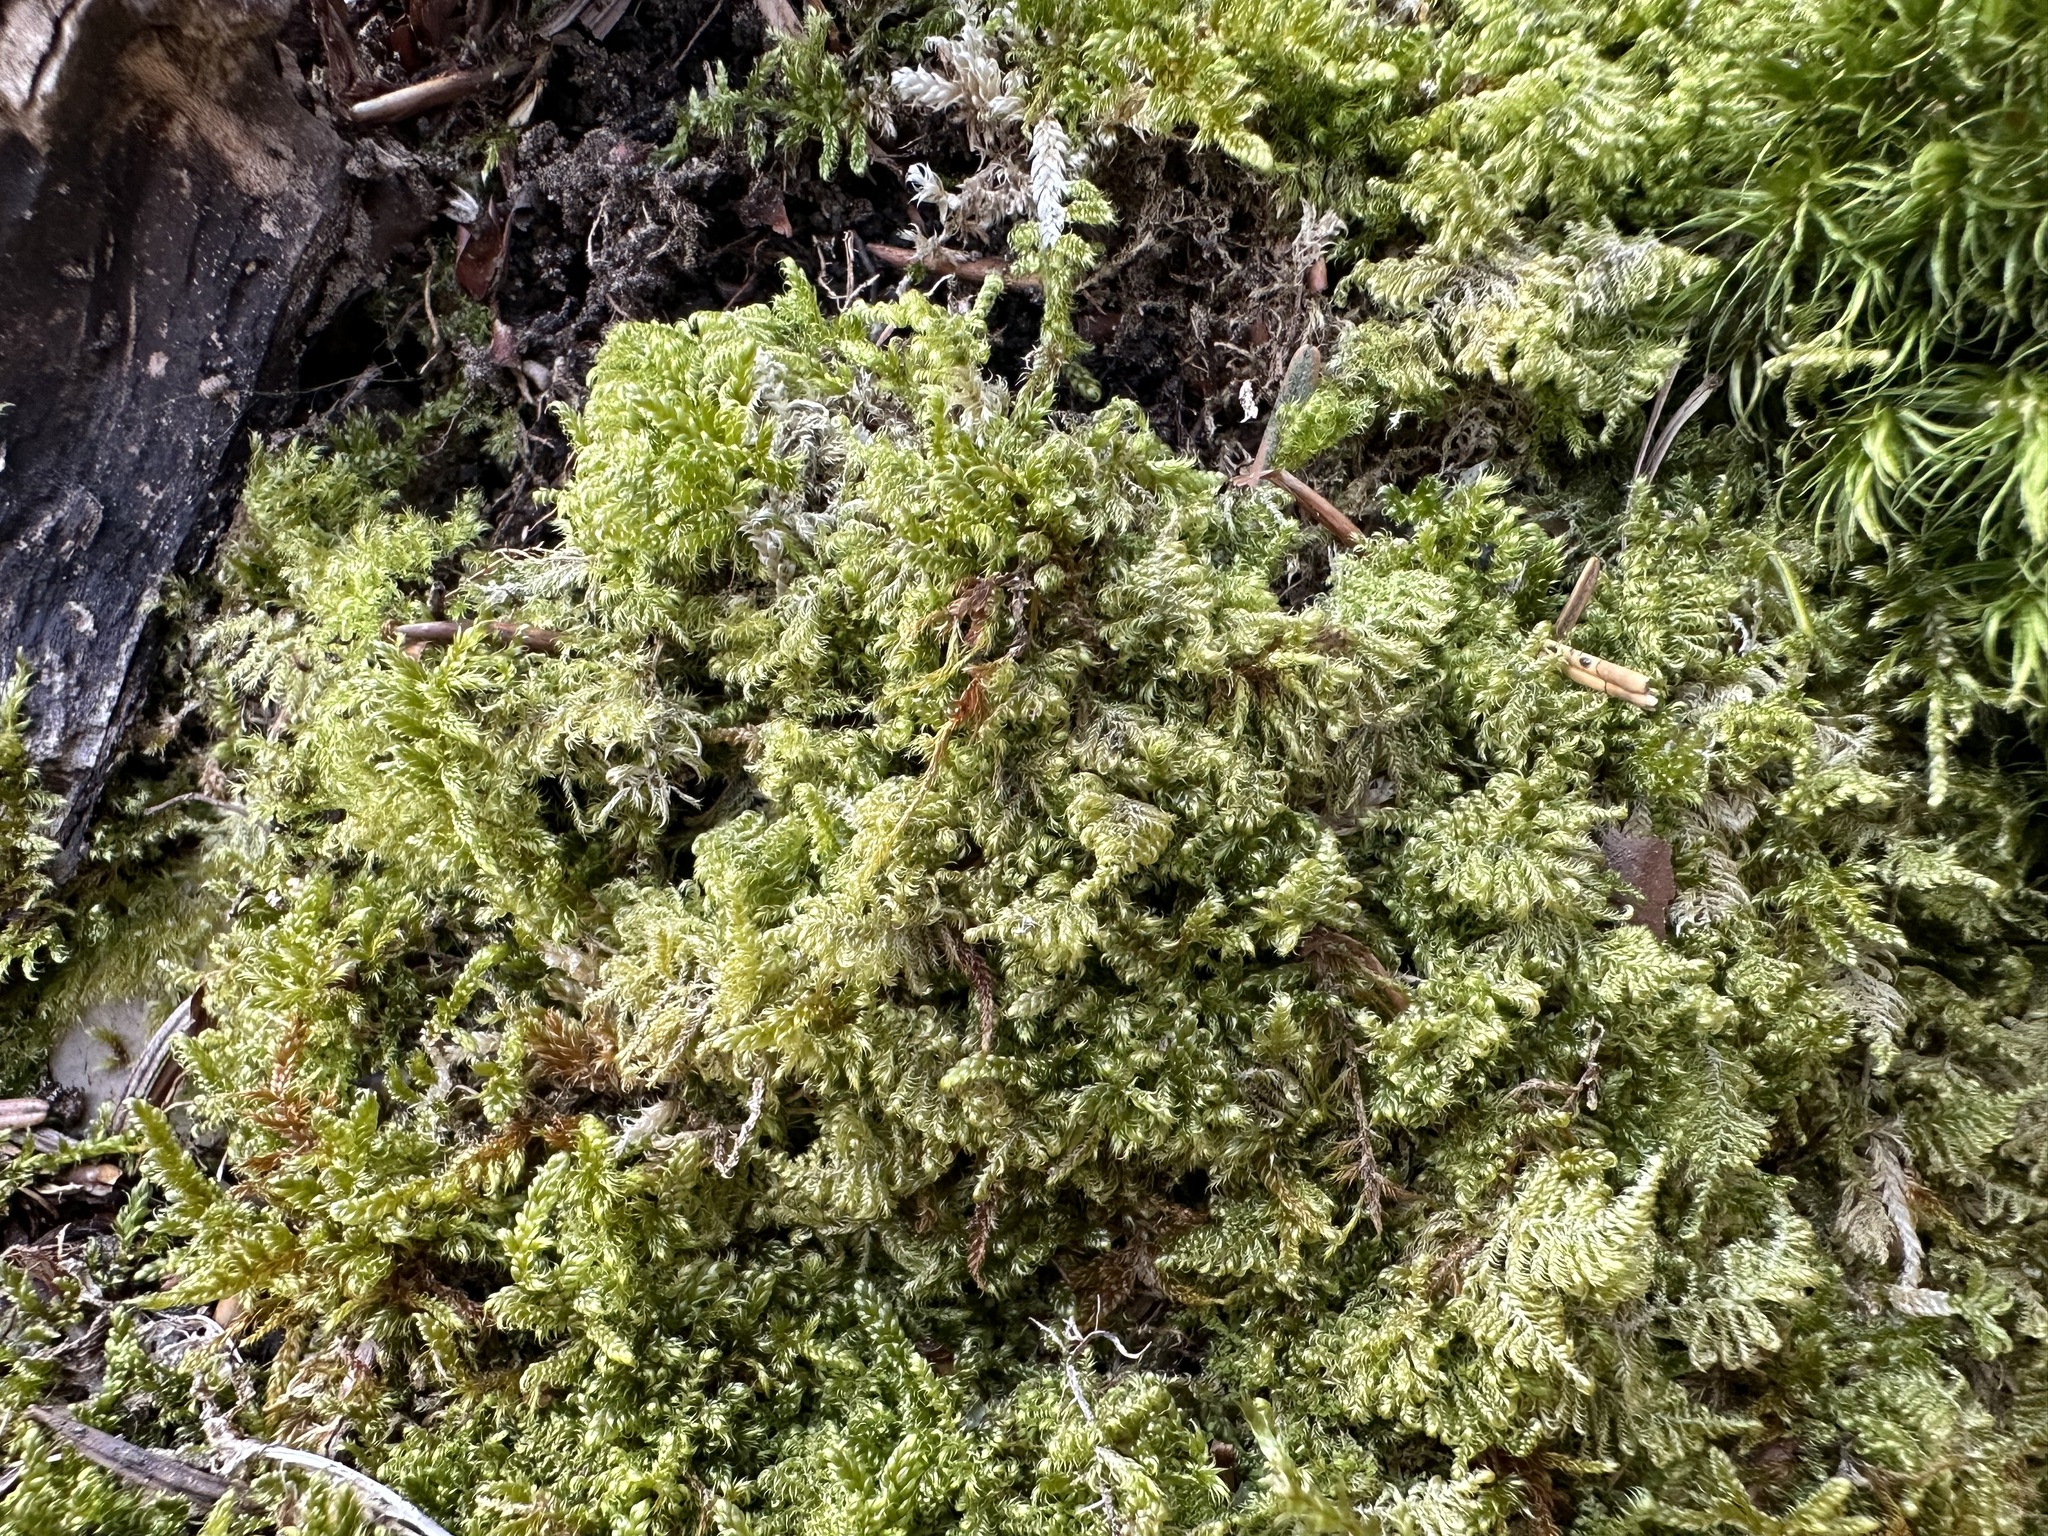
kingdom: Plantae
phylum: Bryophyta
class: Bryopsida
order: Hypnales
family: Myuriaceae
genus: Ctenidium
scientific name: Ctenidium molluscum
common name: Chalk comb-moss
